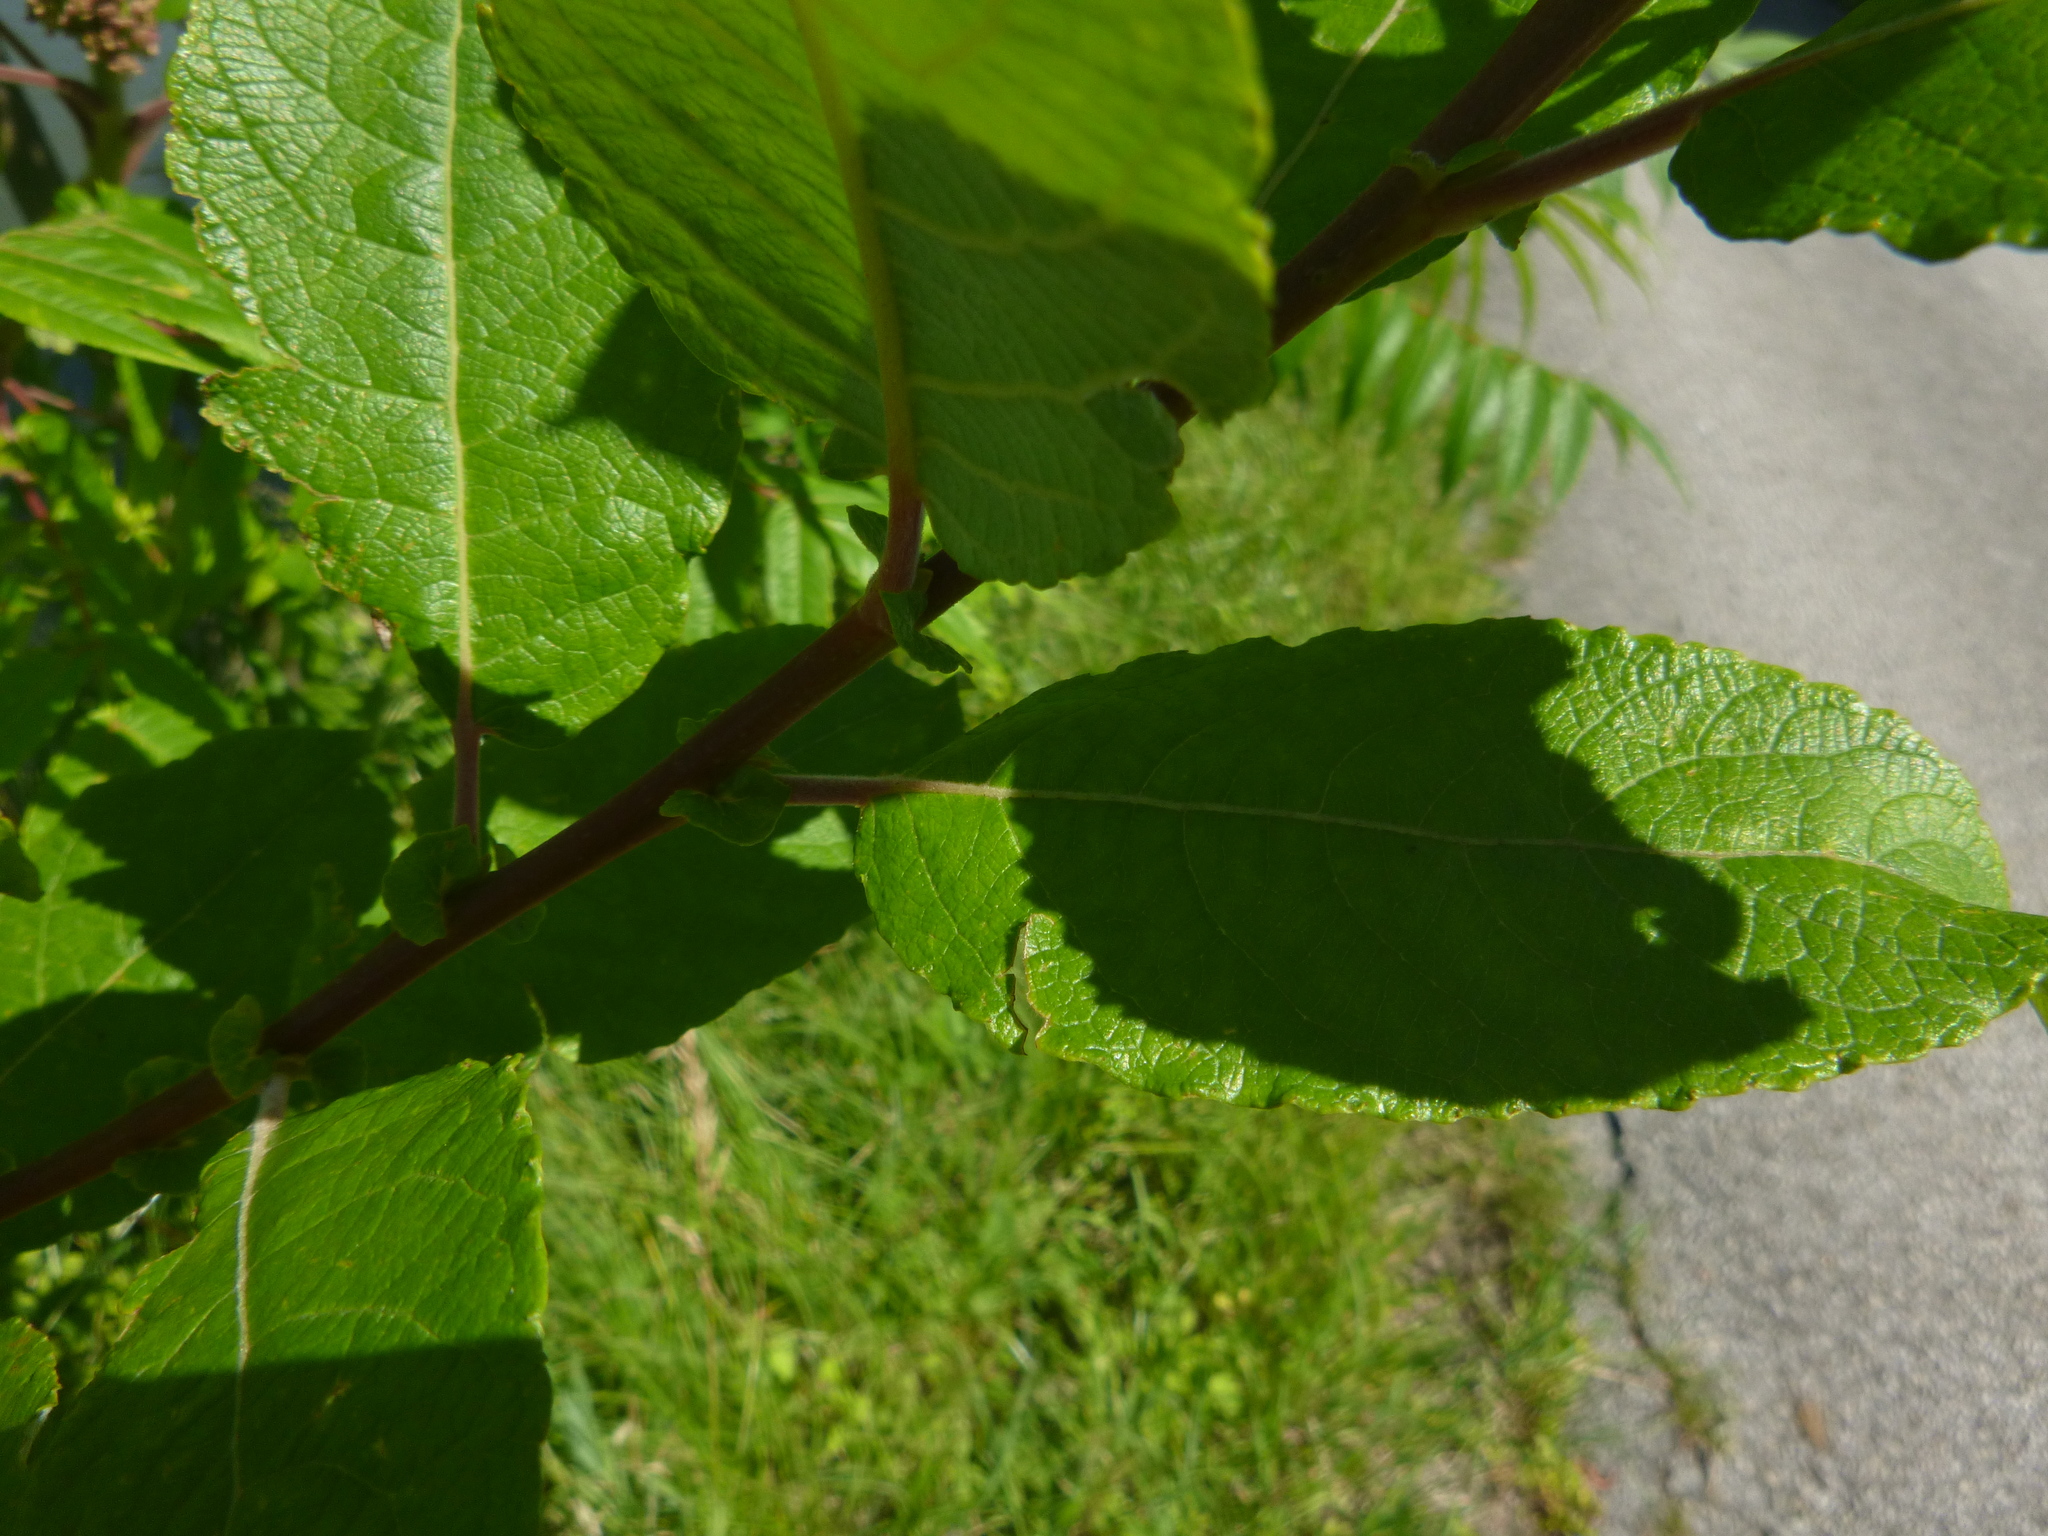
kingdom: Plantae
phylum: Tracheophyta
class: Magnoliopsida
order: Malpighiales
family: Salicaceae
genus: Salix
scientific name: Salix caprea
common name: Goat willow
